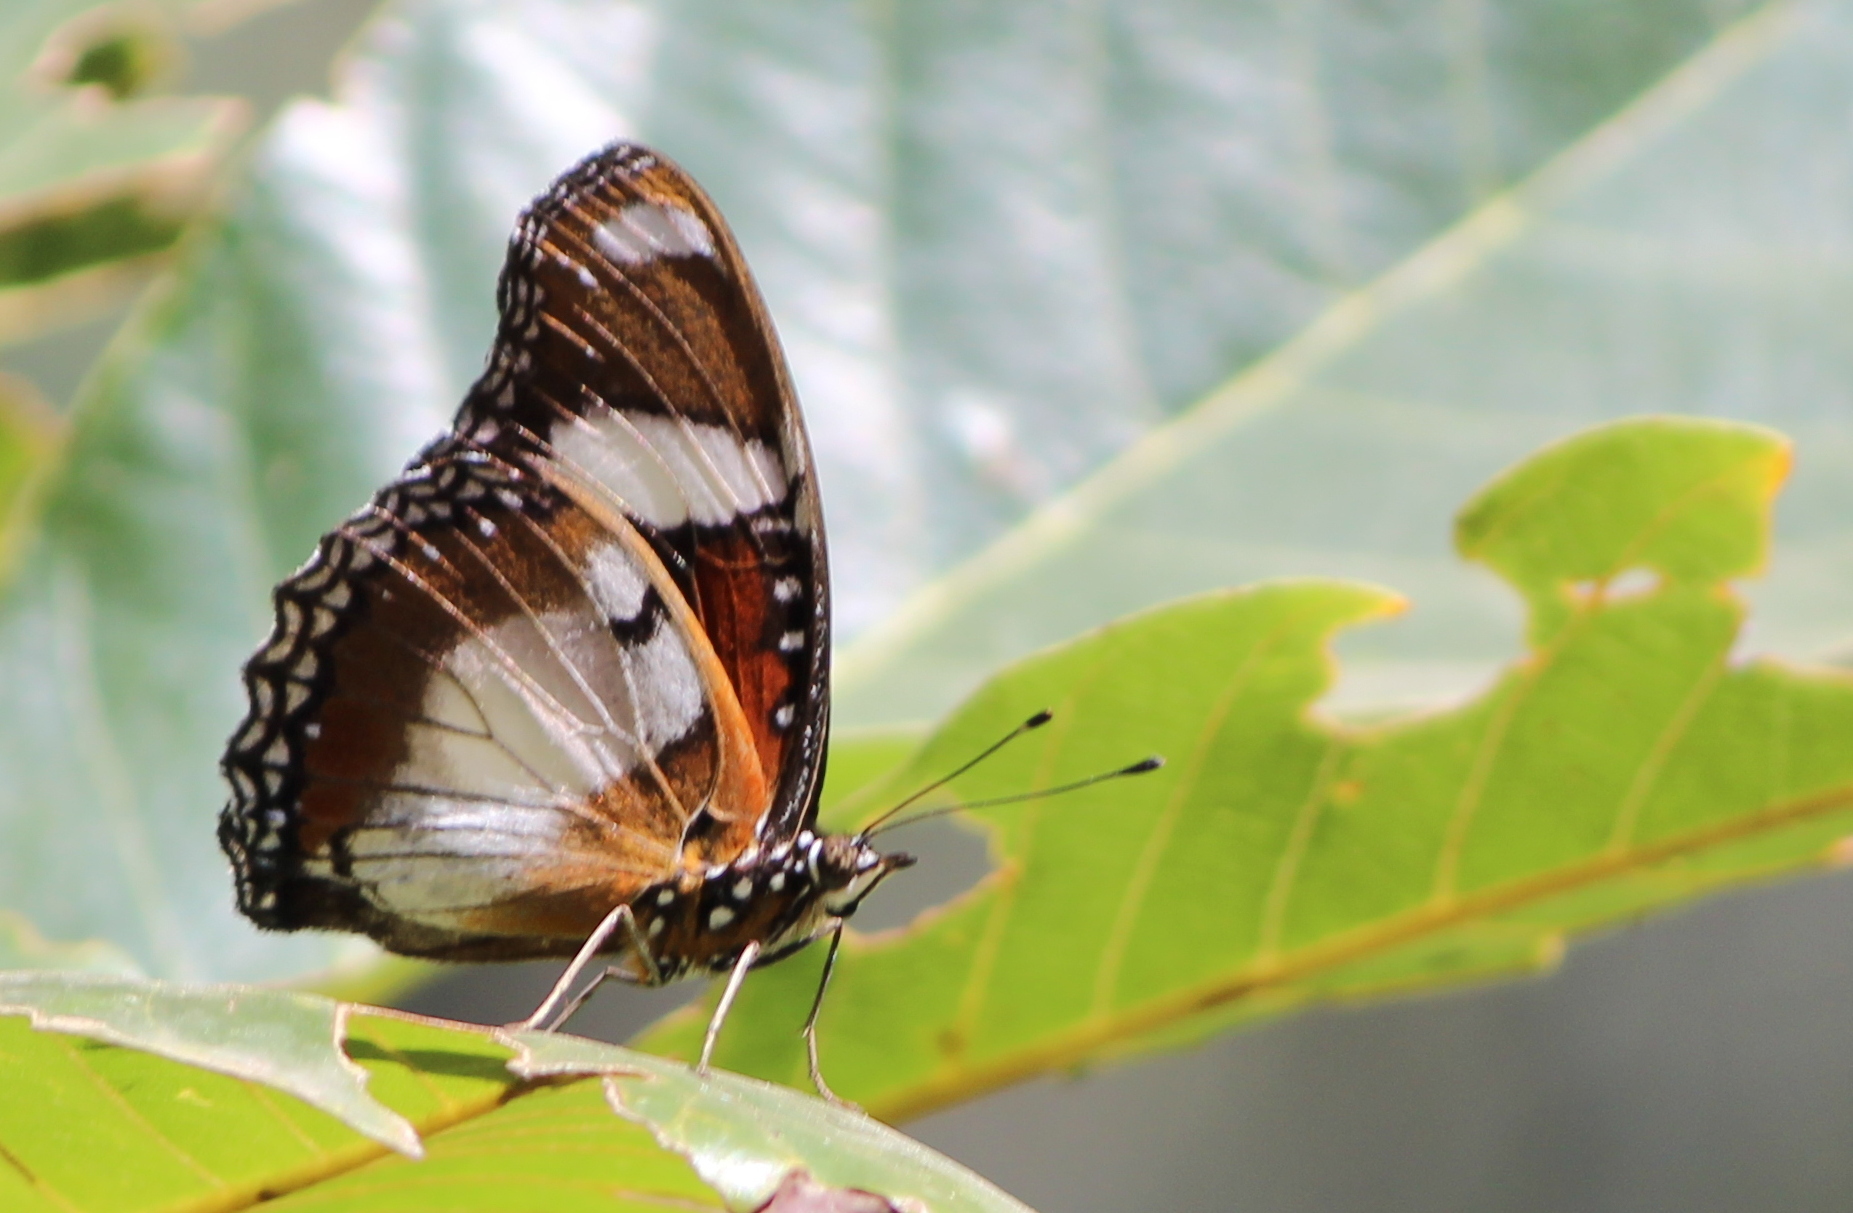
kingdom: Animalia
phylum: Arthropoda
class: Insecta
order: Lepidoptera
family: Nymphalidae
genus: Hypolimnas
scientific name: Hypolimnas misippus
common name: False plain tiger
